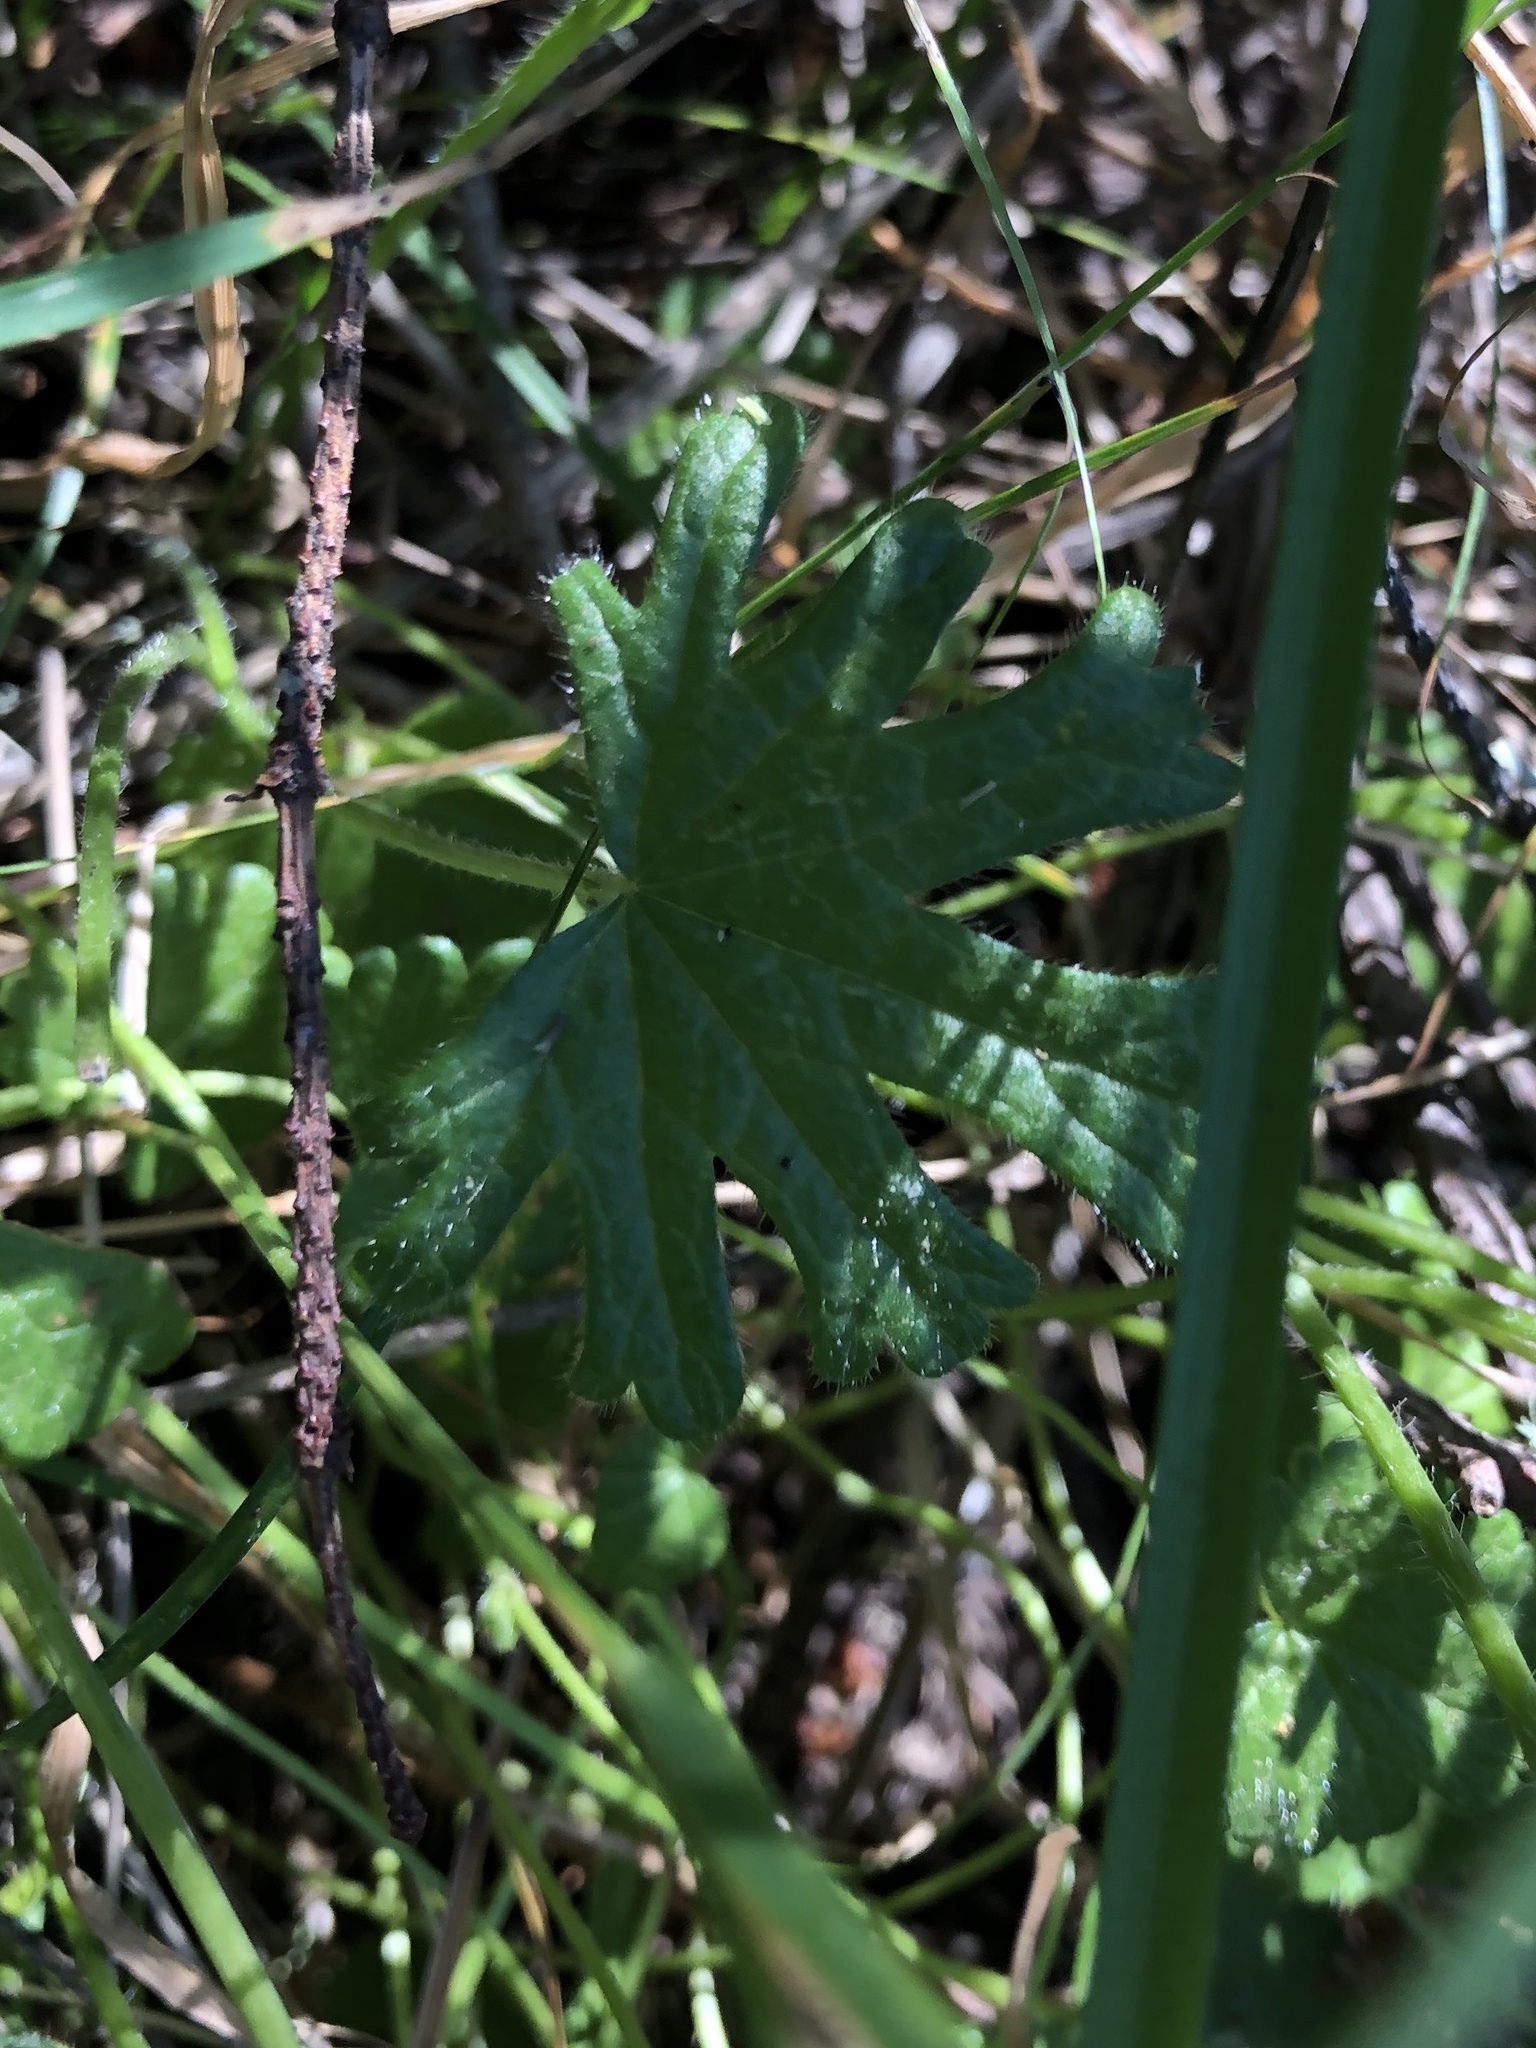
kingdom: Plantae
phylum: Tracheophyta
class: Magnoliopsida
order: Malvales
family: Malvaceae
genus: Sidalcea
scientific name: Sidalcea malviflora
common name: Greek mallow
